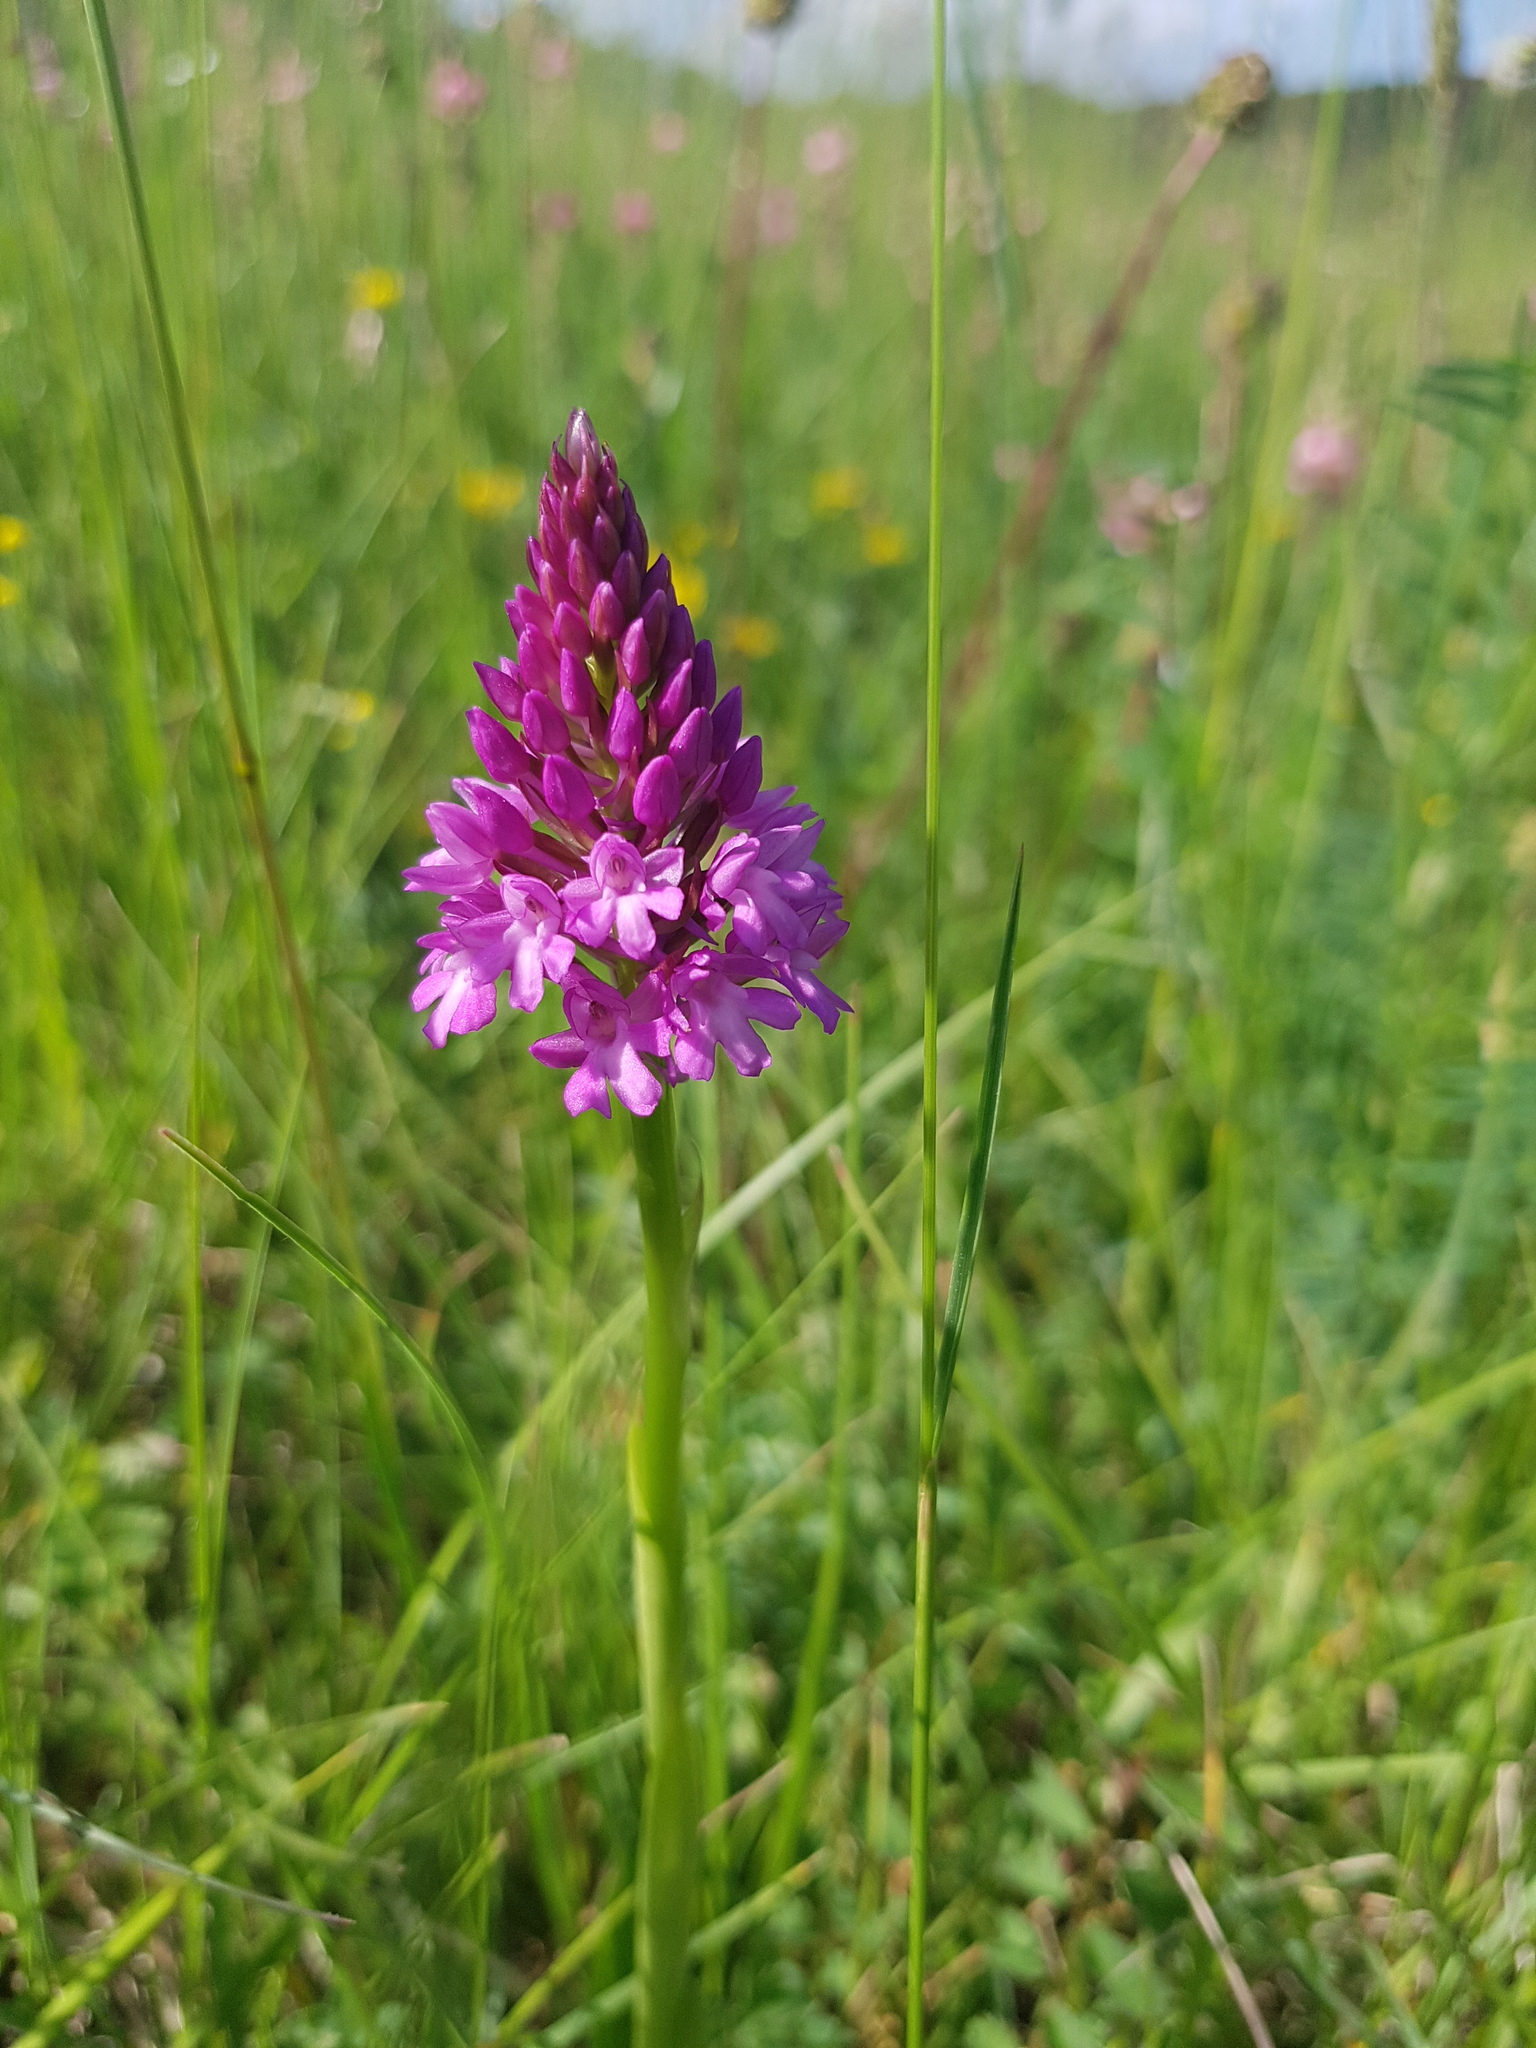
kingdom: Plantae
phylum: Tracheophyta
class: Liliopsida
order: Asparagales
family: Orchidaceae
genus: Anacamptis
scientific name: Anacamptis pyramidalis
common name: Pyramidal orchid
